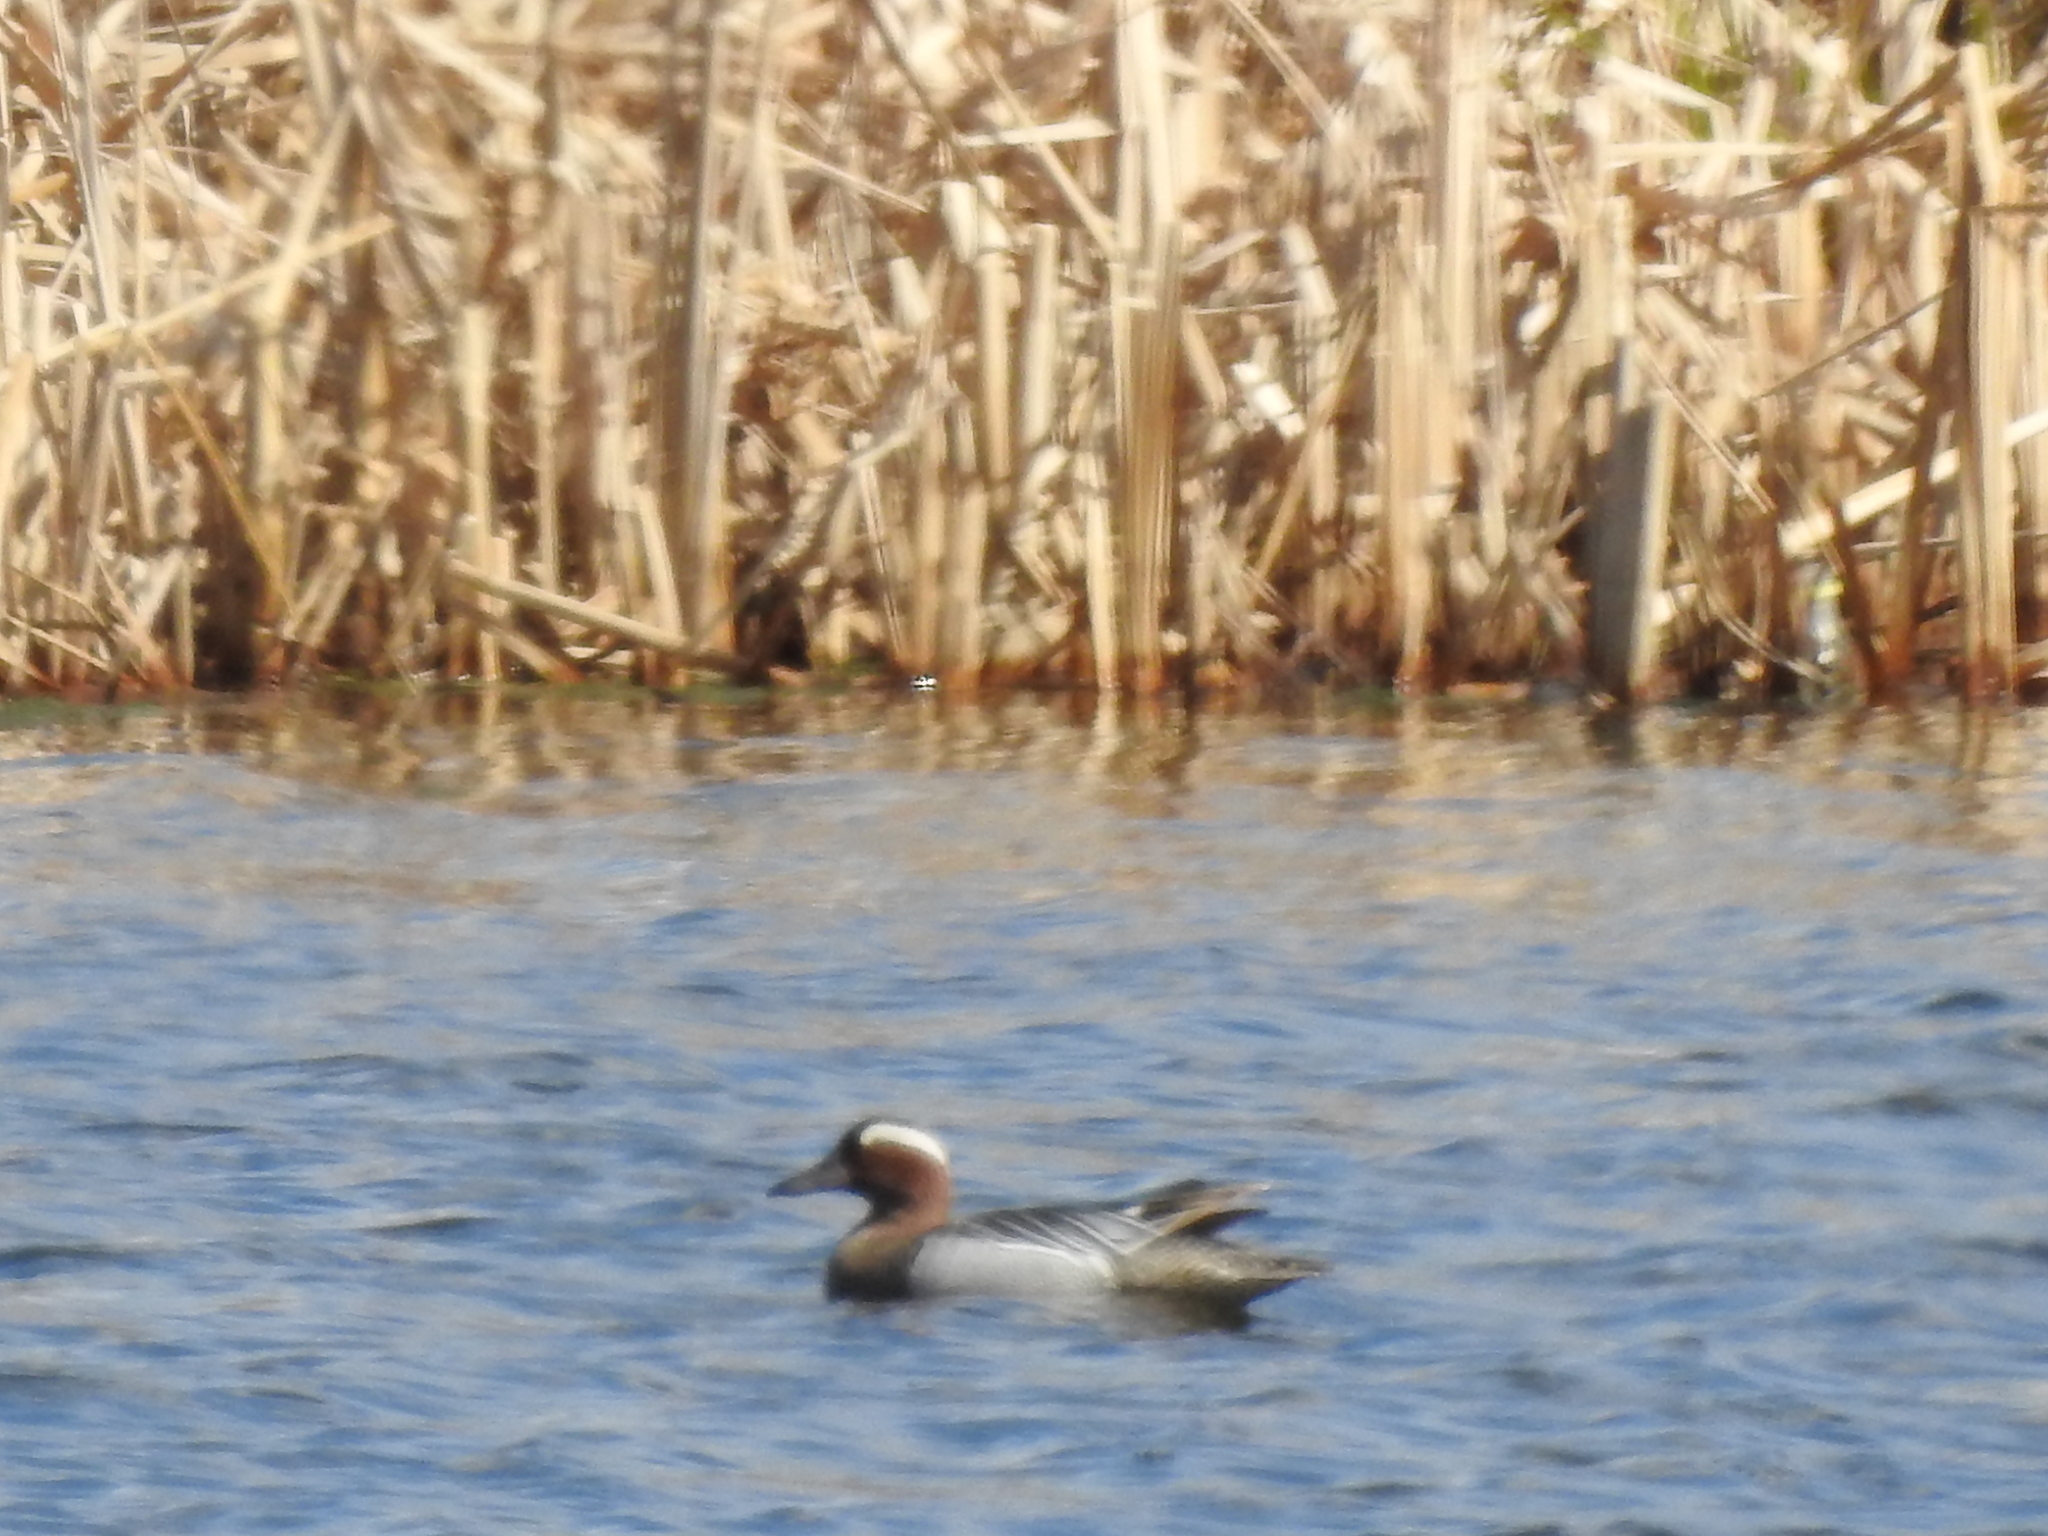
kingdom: Animalia
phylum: Chordata
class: Aves
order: Anseriformes
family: Anatidae
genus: Spatula
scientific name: Spatula querquedula
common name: Garganey
